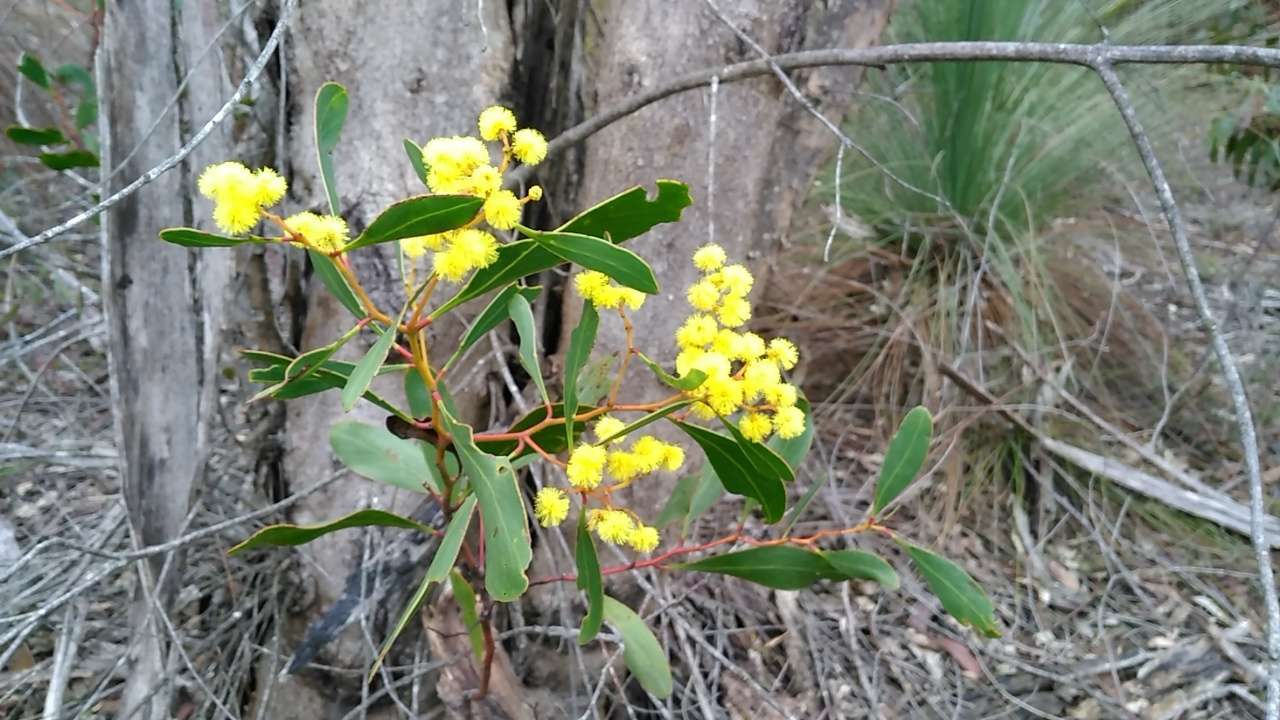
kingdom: Plantae
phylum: Tracheophyta
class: Magnoliopsida
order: Fabales
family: Fabaceae
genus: Acacia
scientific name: Acacia pycnantha
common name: Golden wattle
